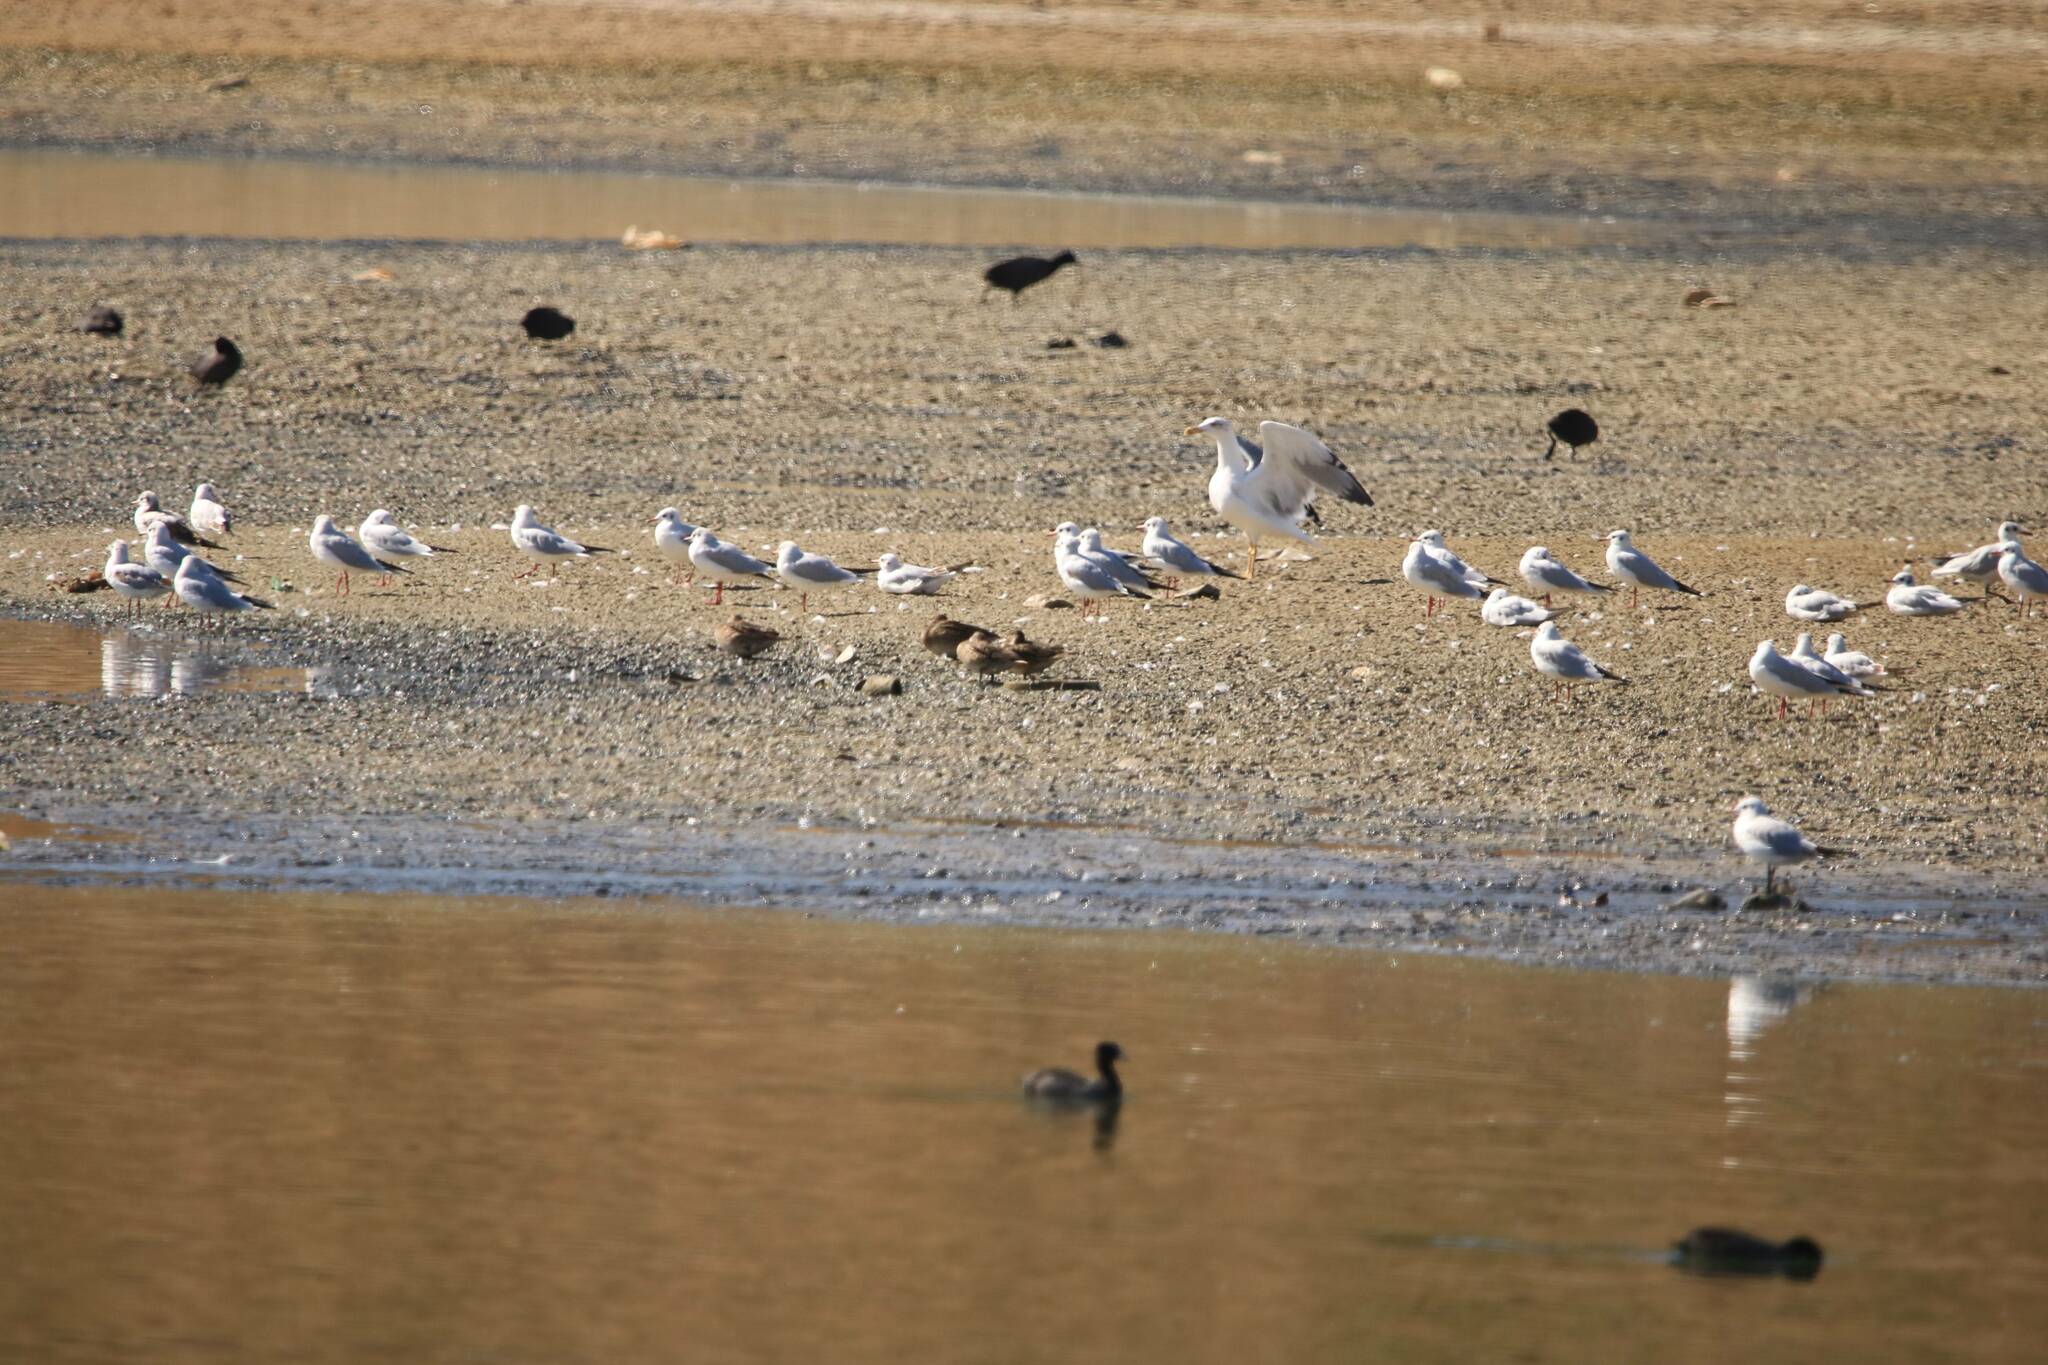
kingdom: Animalia
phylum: Chordata
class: Aves
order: Charadriiformes
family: Laridae
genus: Chroicocephalus
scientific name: Chroicocephalus ridibundus
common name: Black-headed gull
